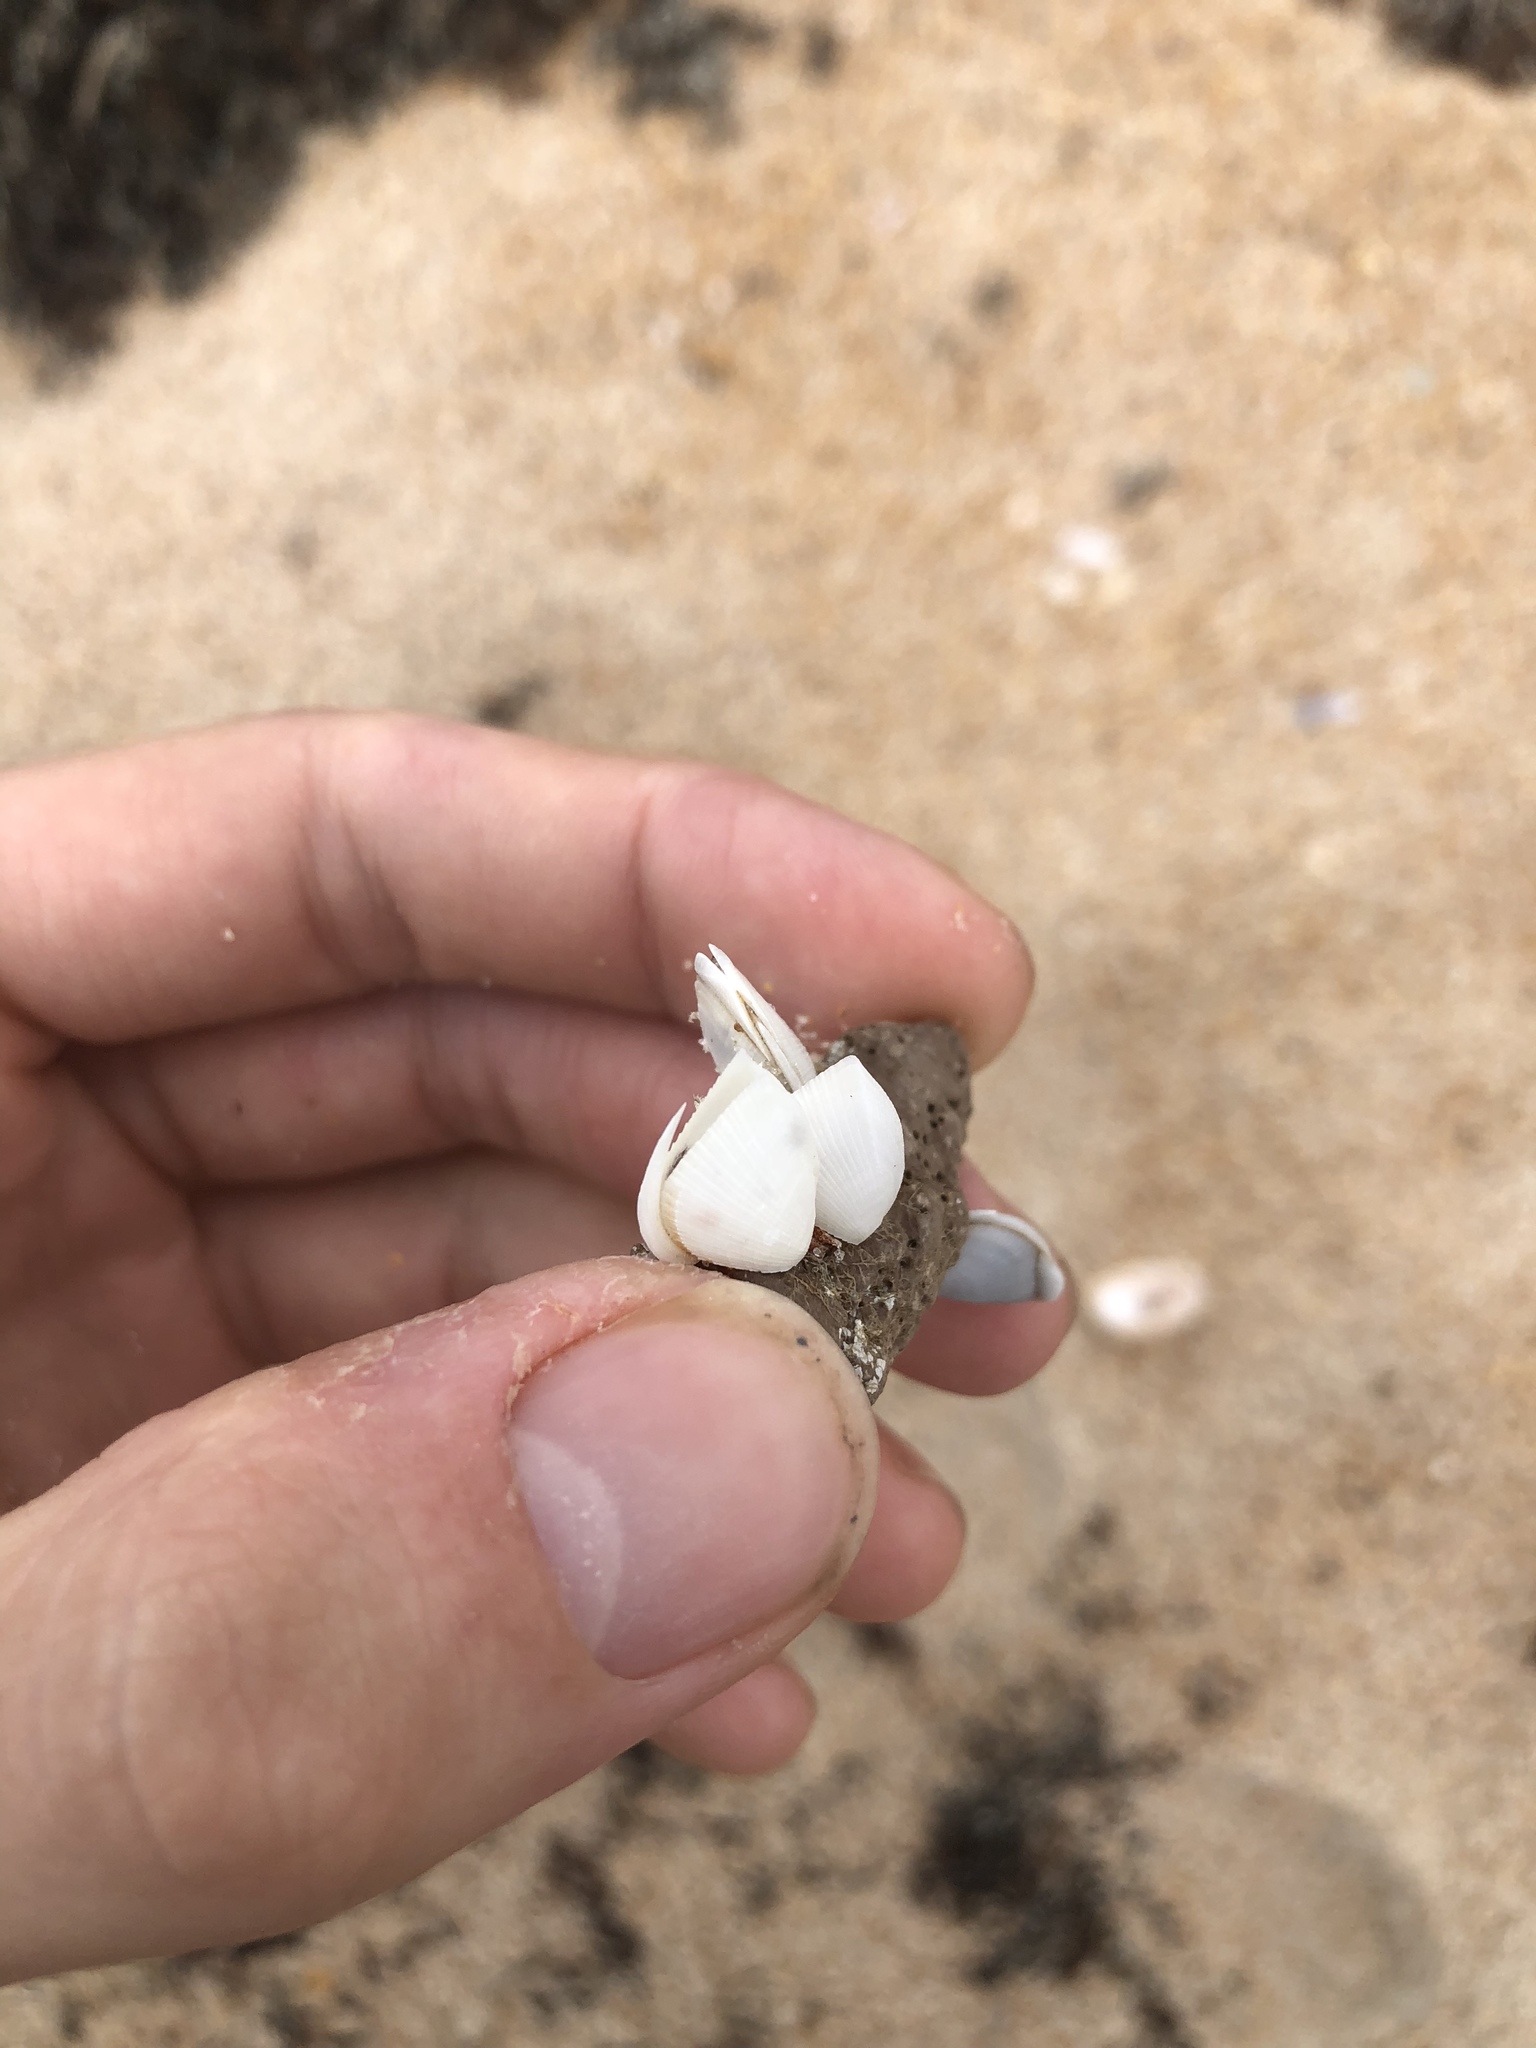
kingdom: Animalia
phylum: Arthropoda
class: Maxillopoda
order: Pedunculata
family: Lepadidae
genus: Lepas
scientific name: Lepas anserifera
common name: Goose barnacle
